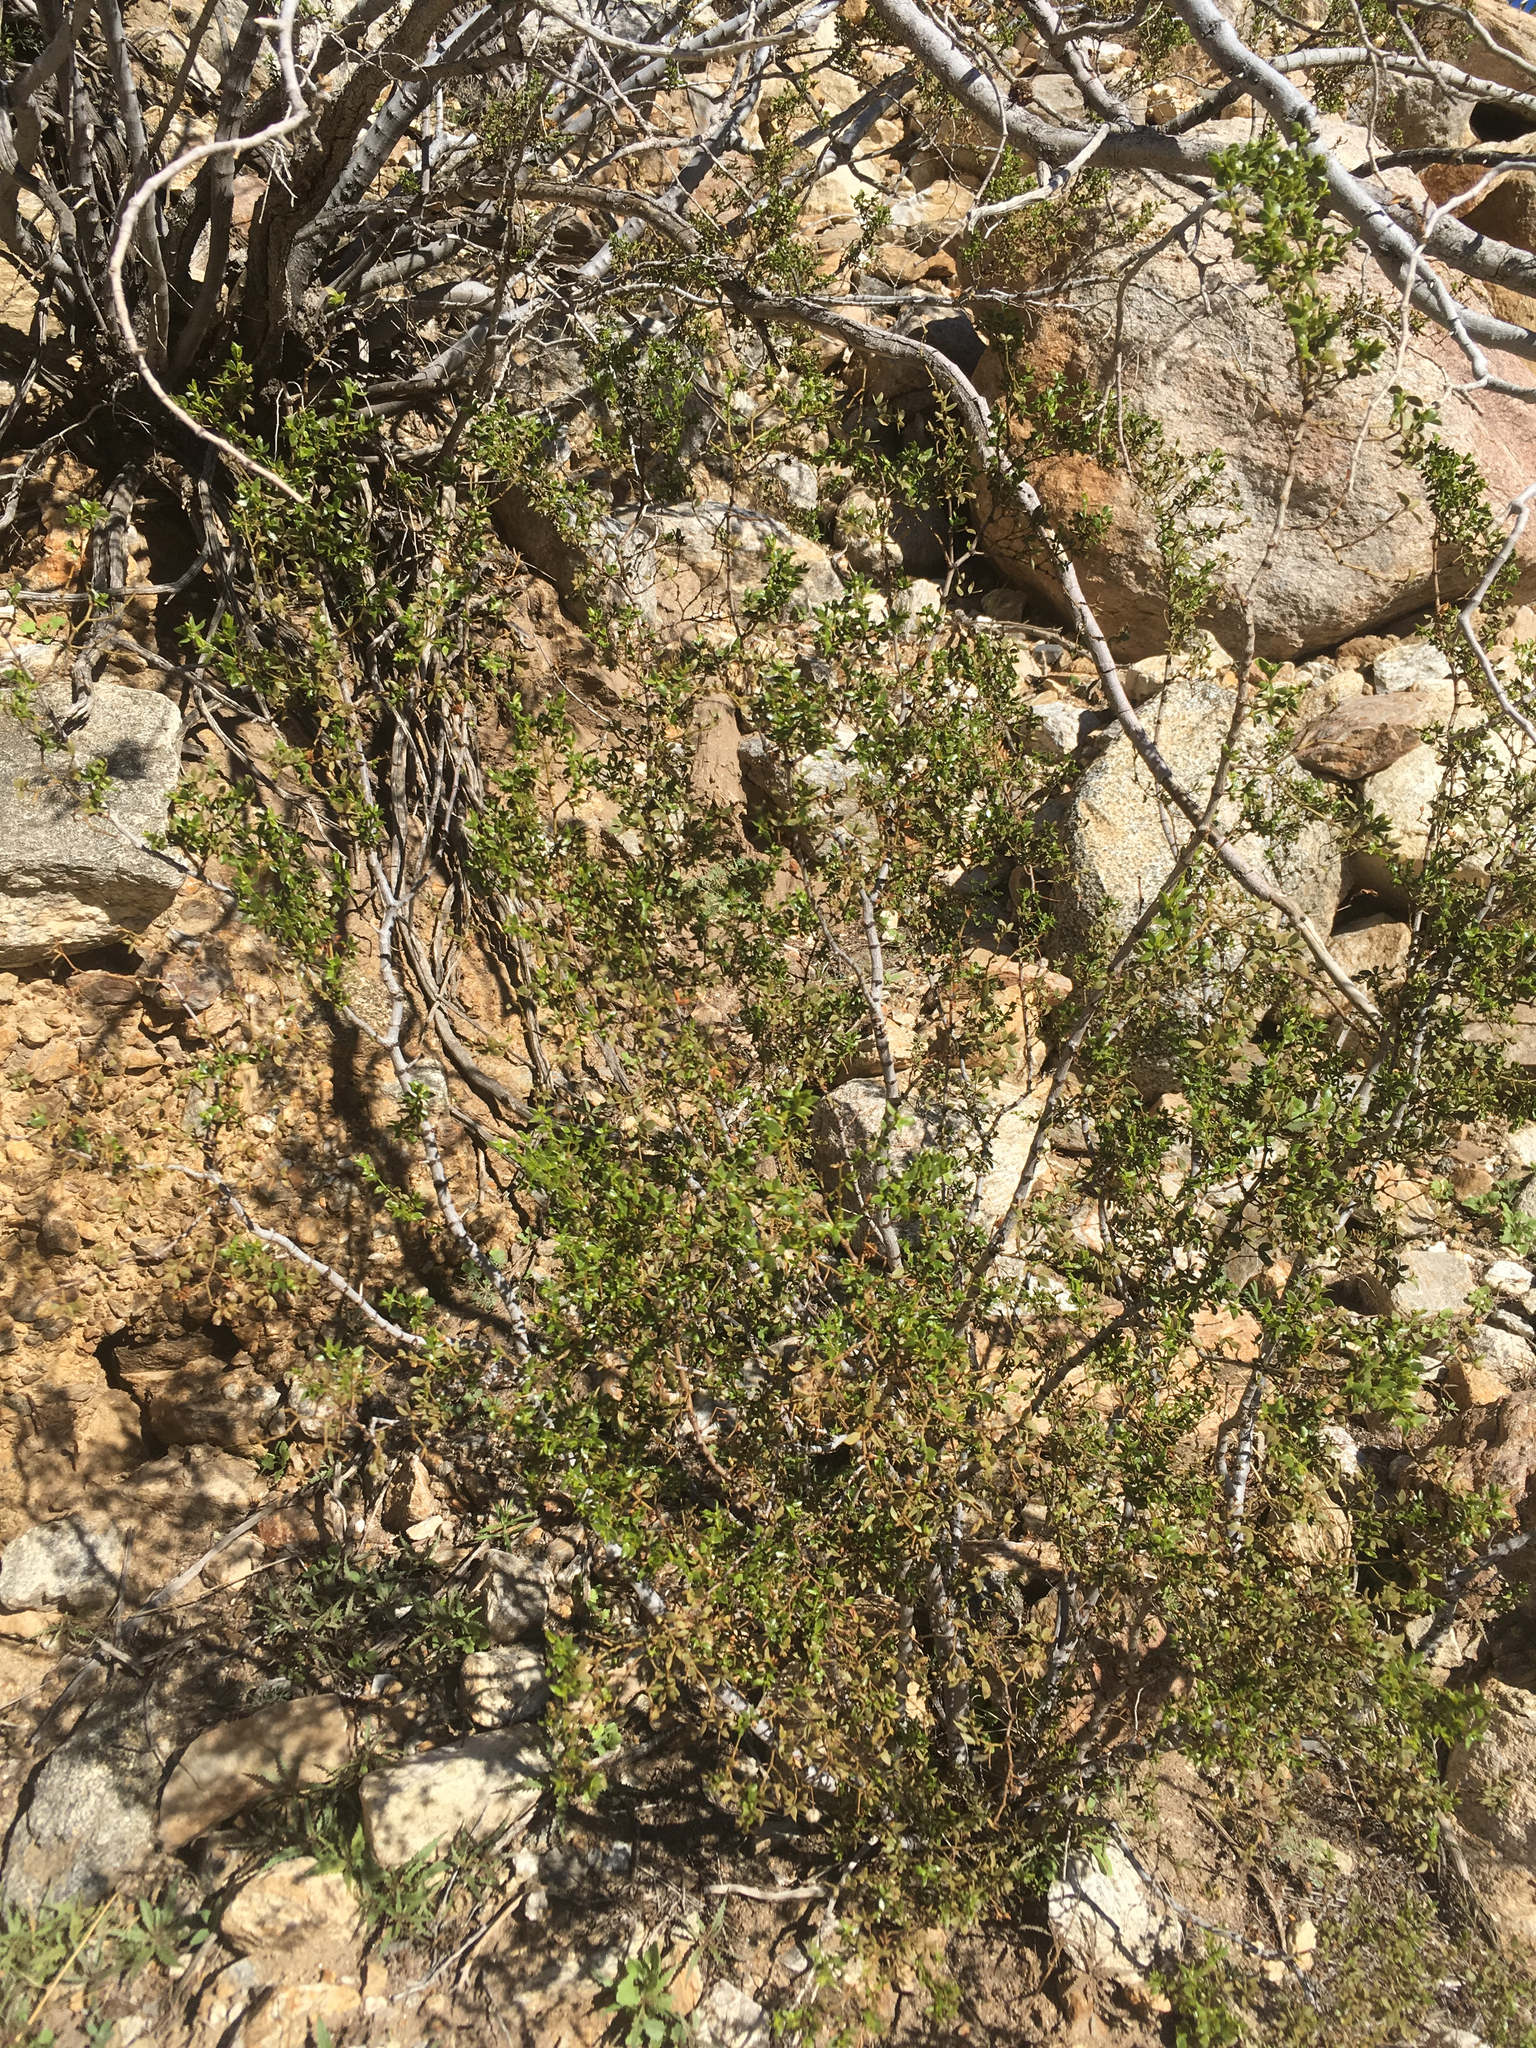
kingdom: Plantae
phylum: Tracheophyta
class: Magnoliopsida
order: Zygophyllales
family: Zygophyllaceae
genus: Larrea
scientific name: Larrea tridentata
